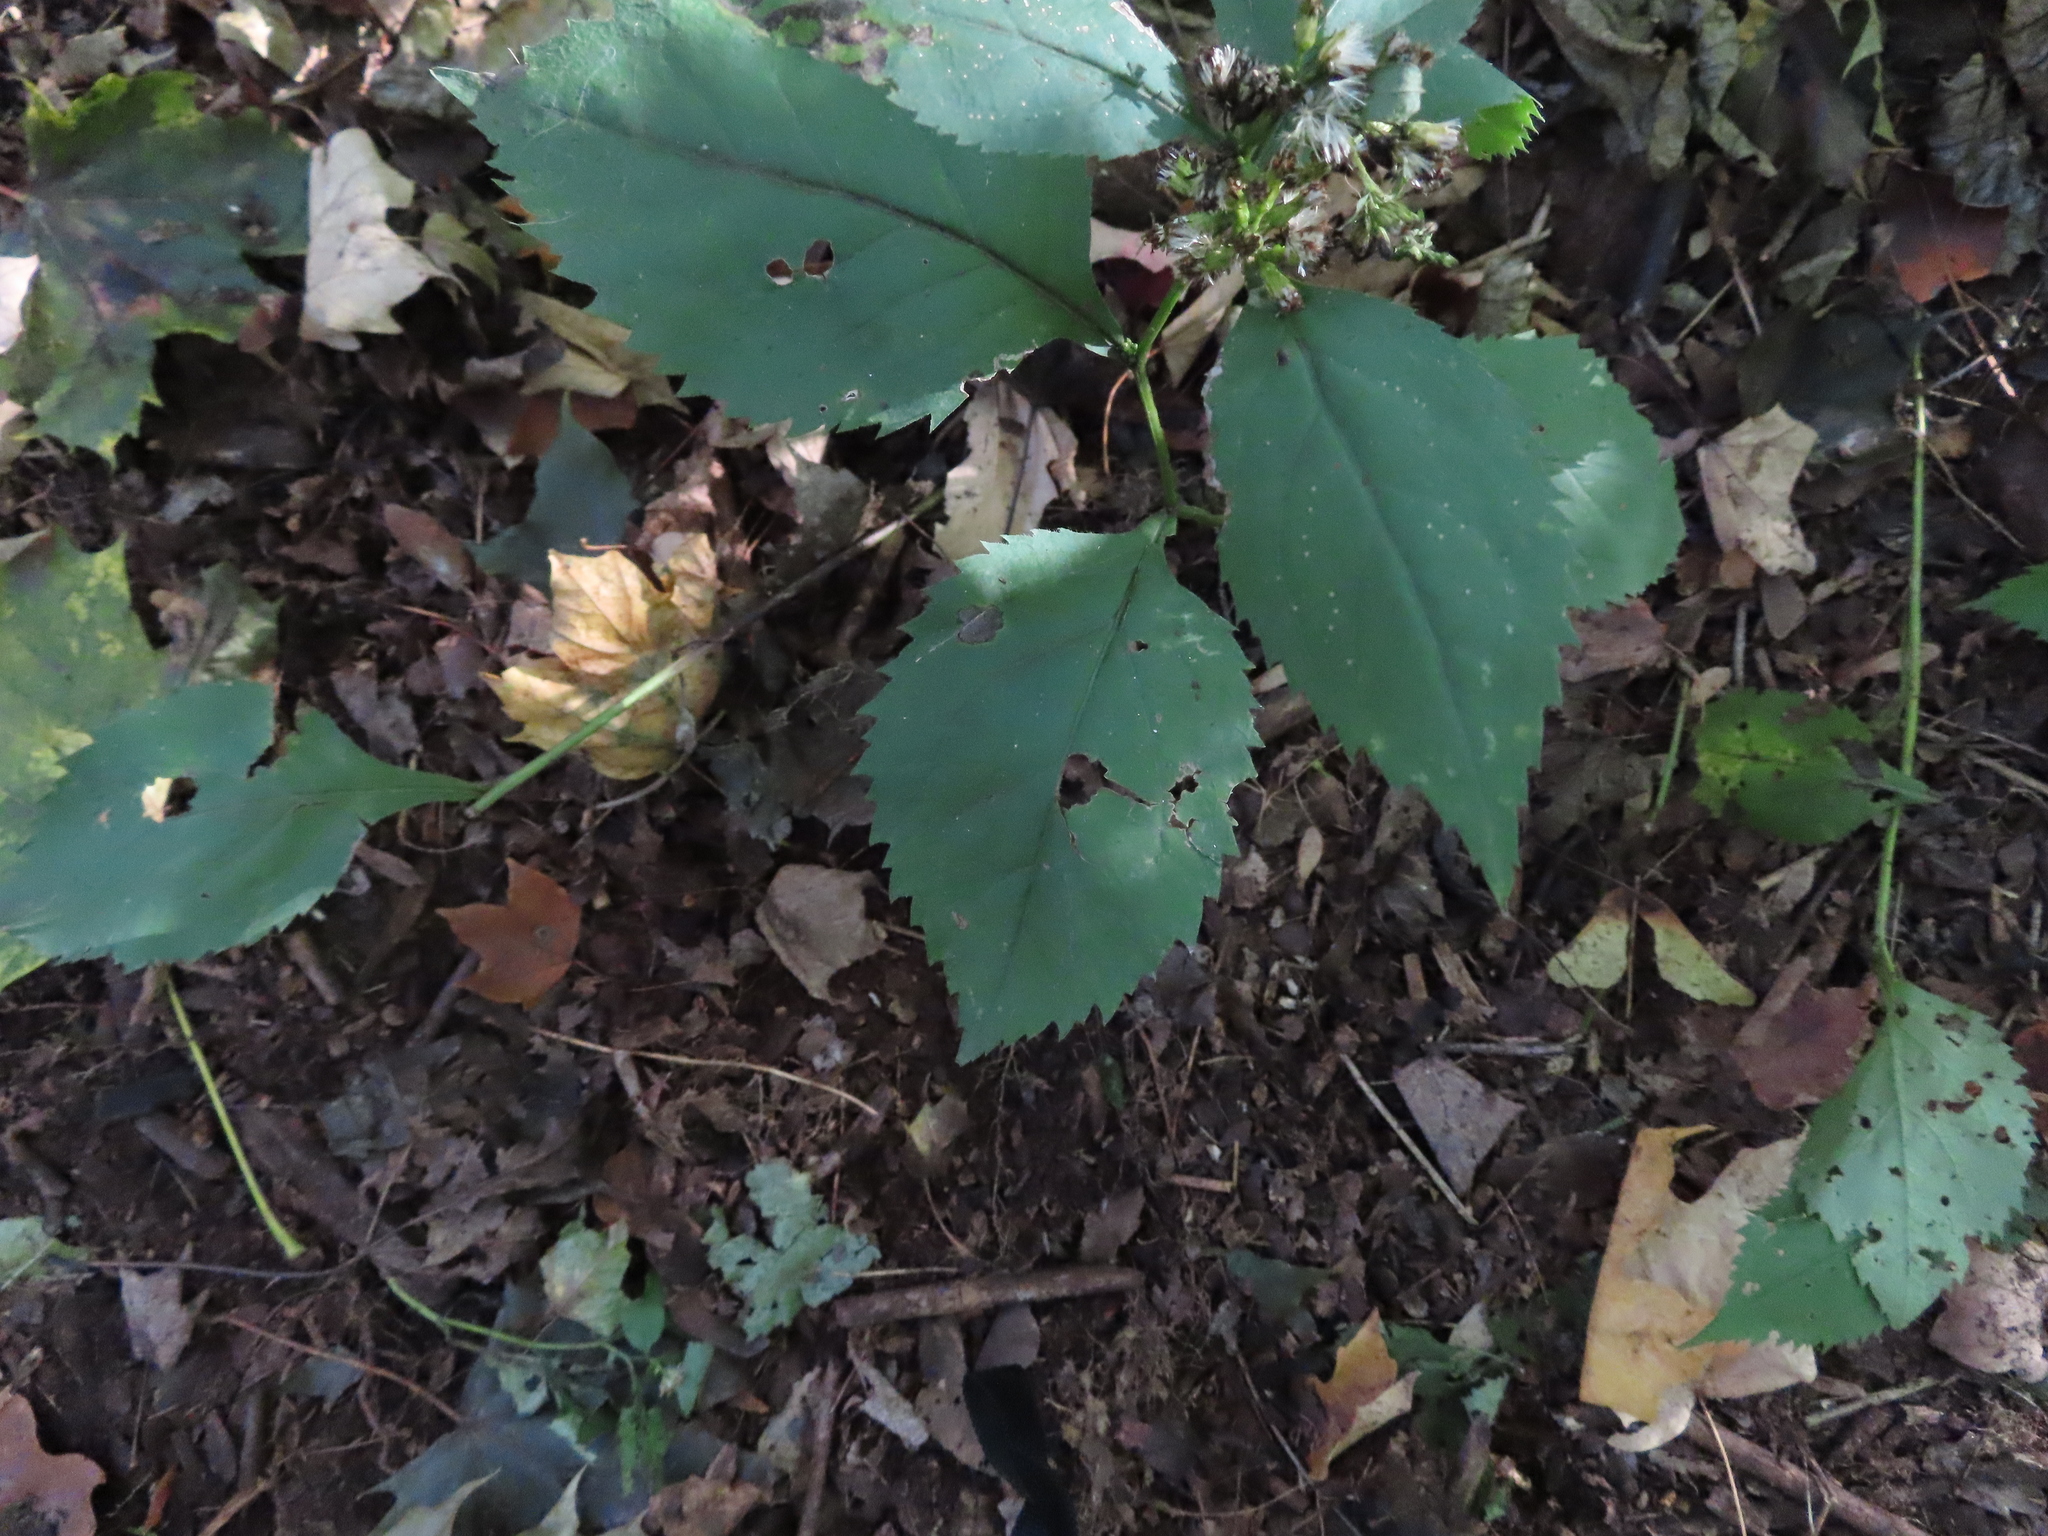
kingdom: Plantae
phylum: Tracheophyta
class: Magnoliopsida
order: Asterales
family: Asteraceae
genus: Solidago
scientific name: Solidago flexicaulis
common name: Zig-zag goldenrod
